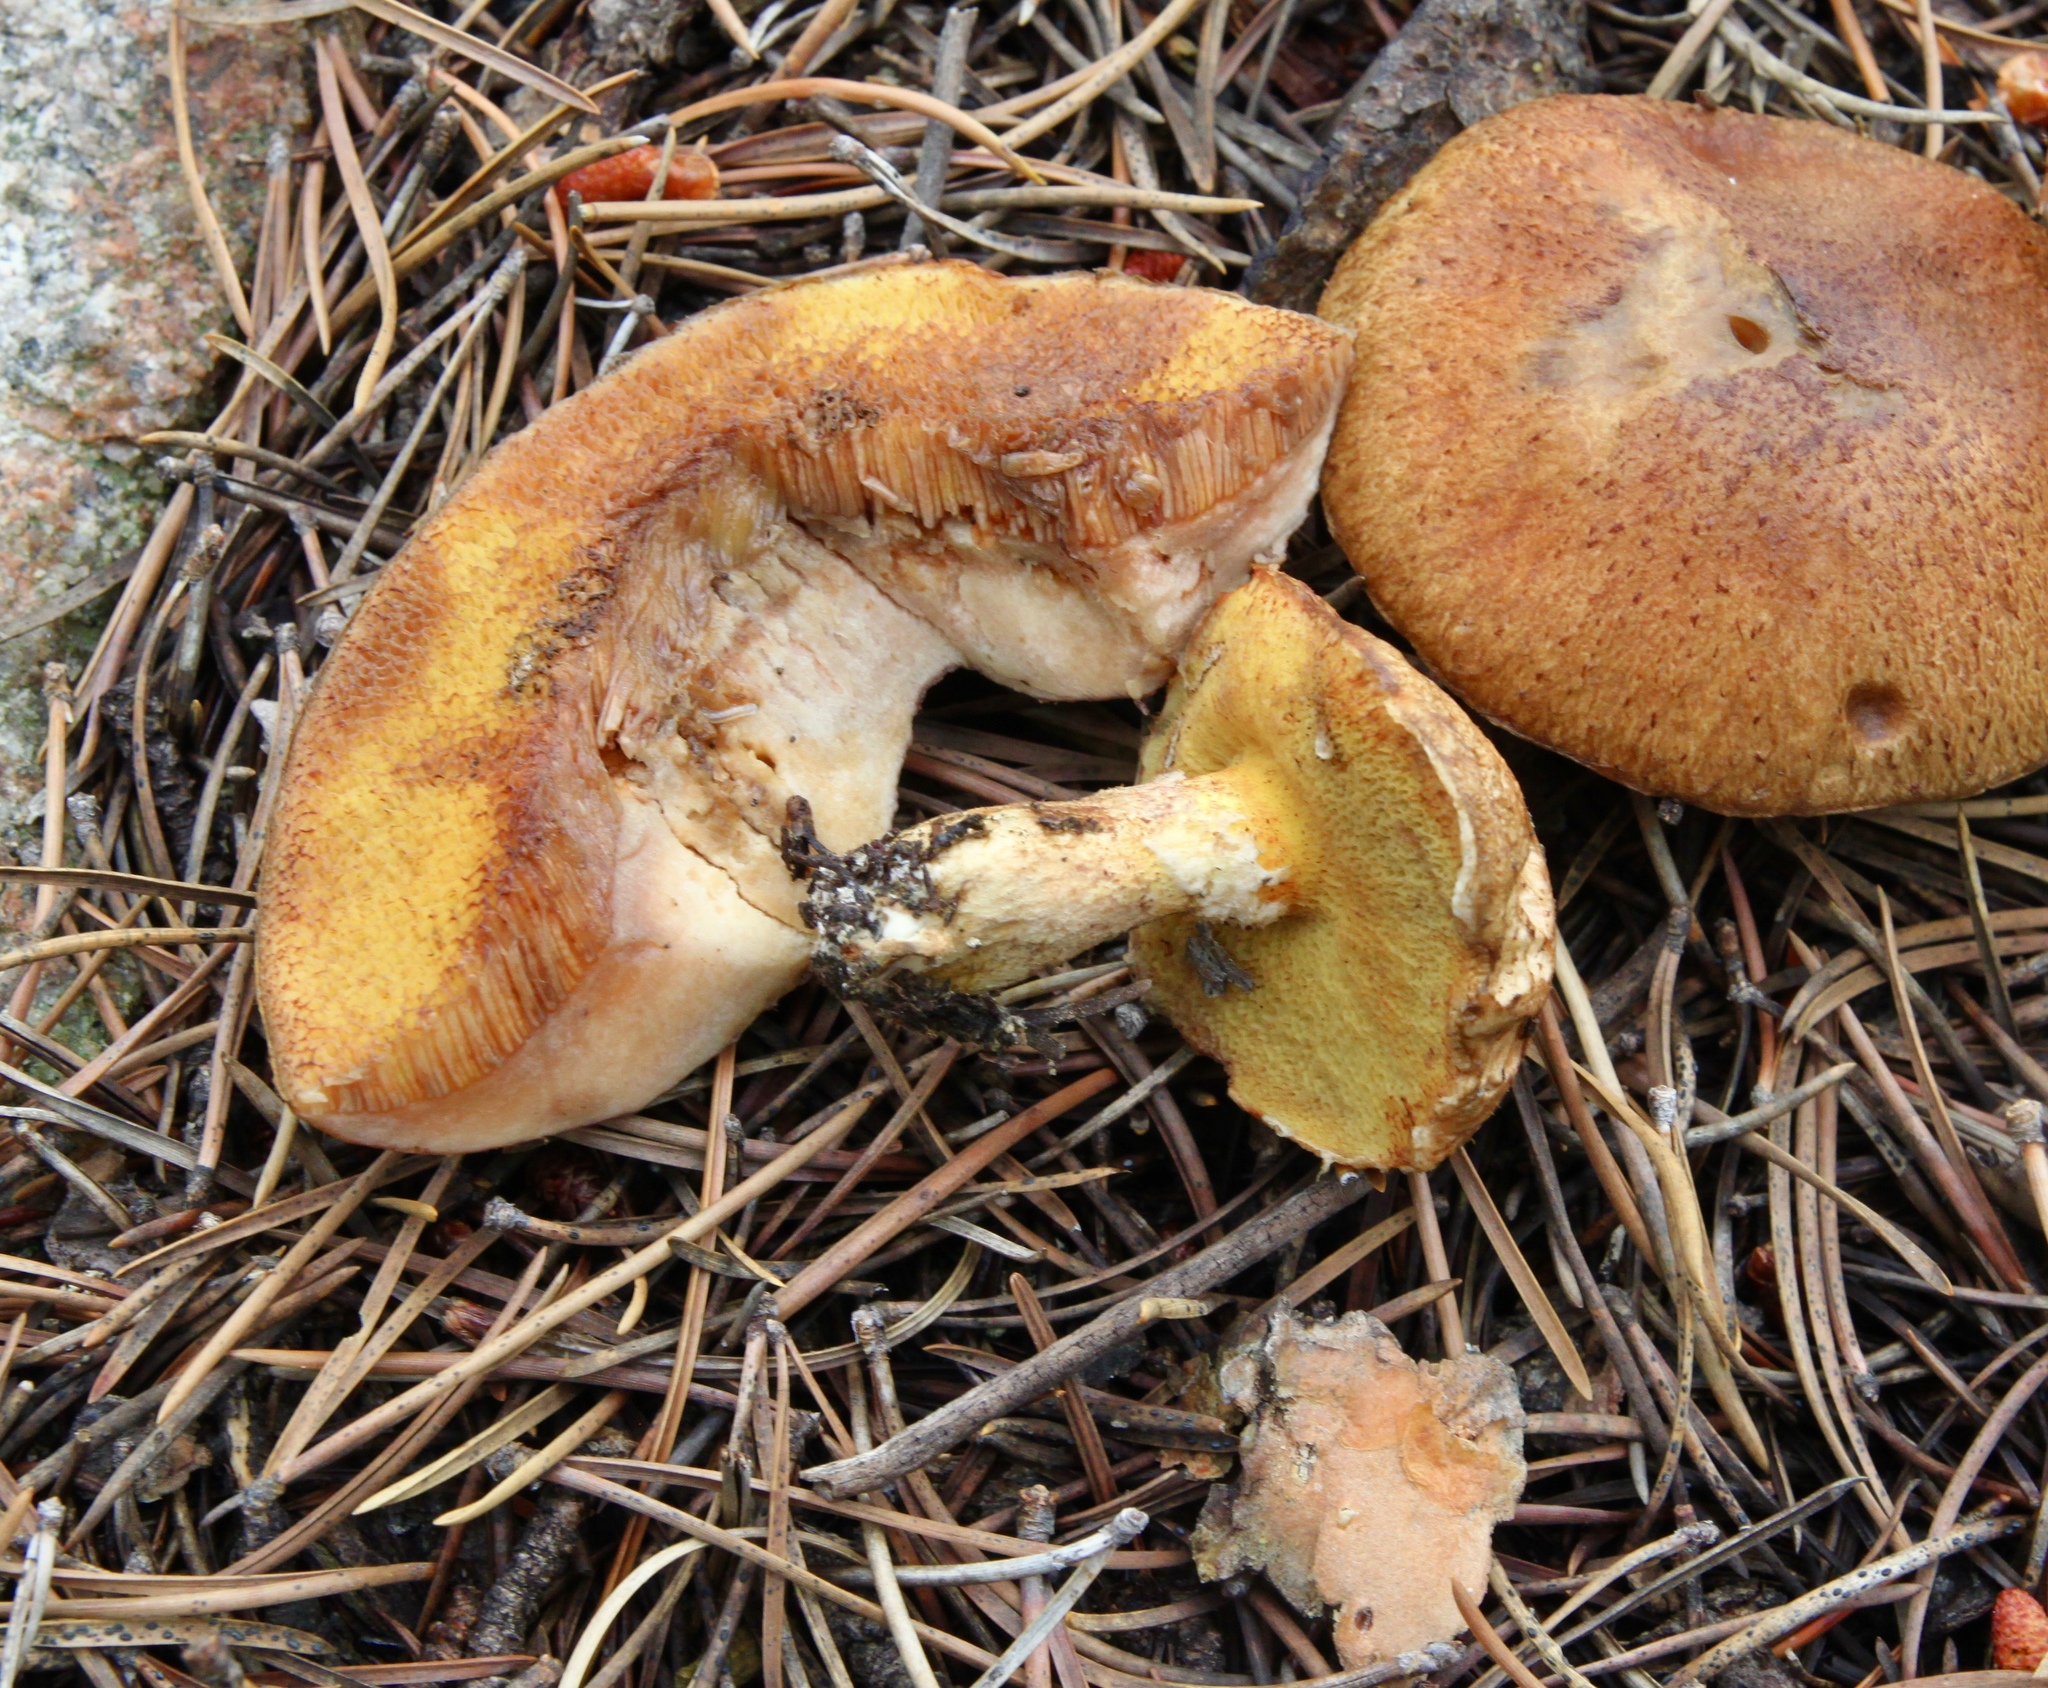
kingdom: Fungi
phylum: Basidiomycota
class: Agaricomycetes
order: Boletales
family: Suillaceae
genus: Suillus
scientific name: Suillus lakei
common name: Western painted suillus
